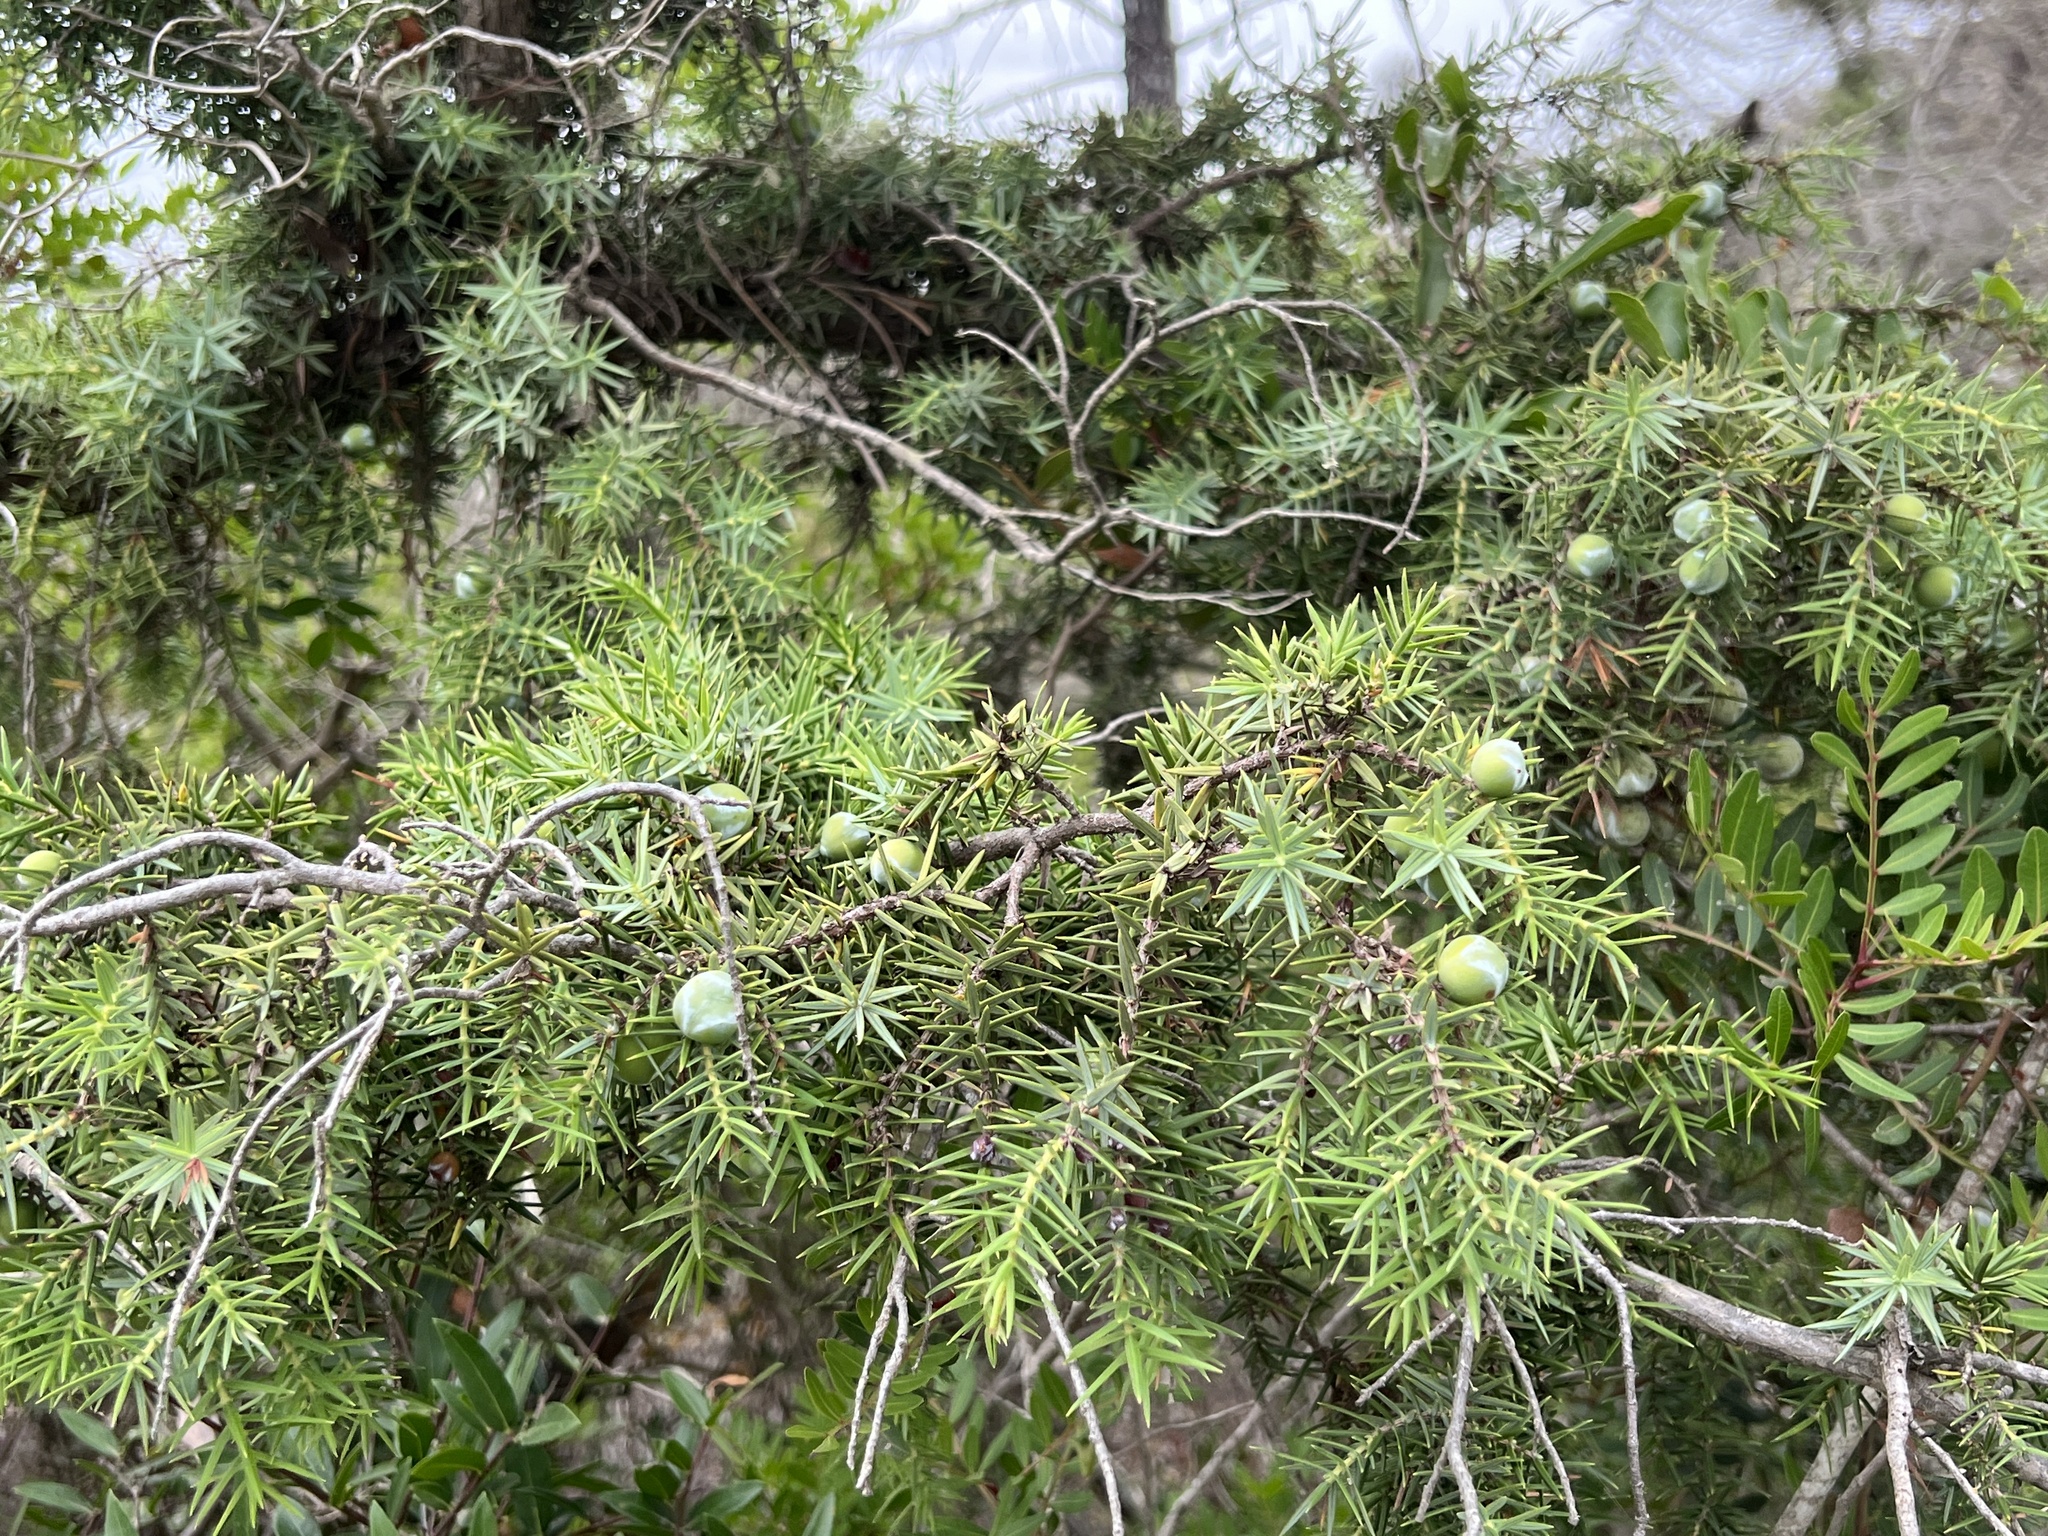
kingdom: Plantae
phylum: Tracheophyta
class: Pinopsida
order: Pinales
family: Cupressaceae
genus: Juniperus
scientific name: Juniperus oxycedrus
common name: Prickly juniper
